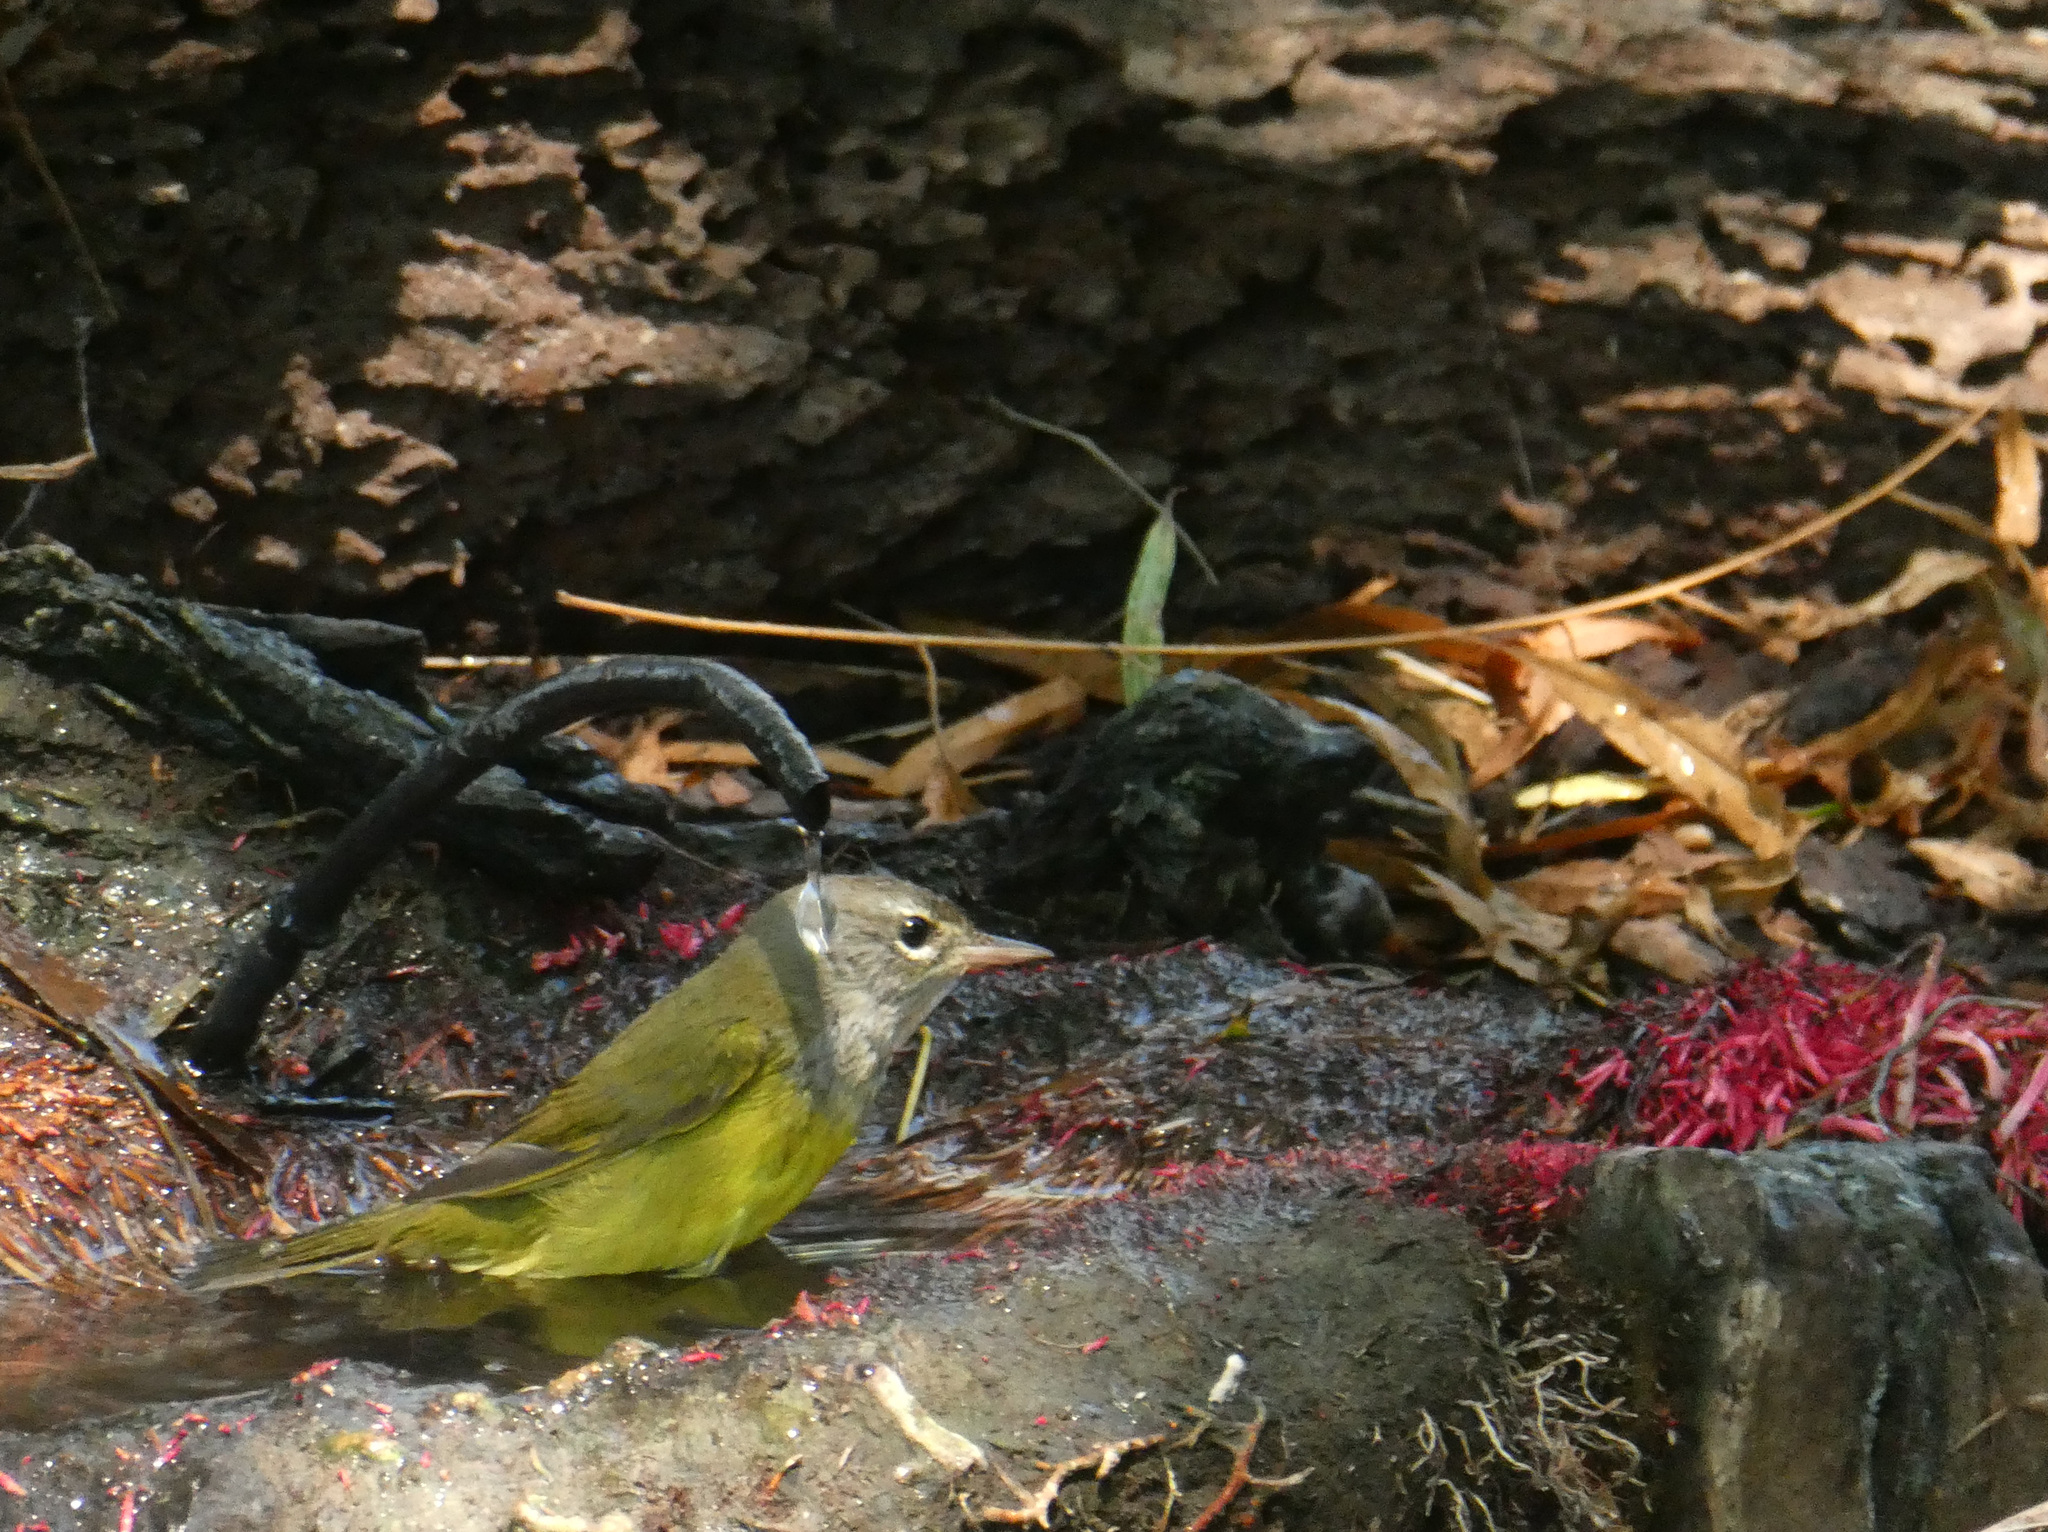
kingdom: Animalia
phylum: Chordata
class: Aves
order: Passeriformes
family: Parulidae
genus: Geothlypis
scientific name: Geothlypis philadelphia
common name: Mourning warbler
